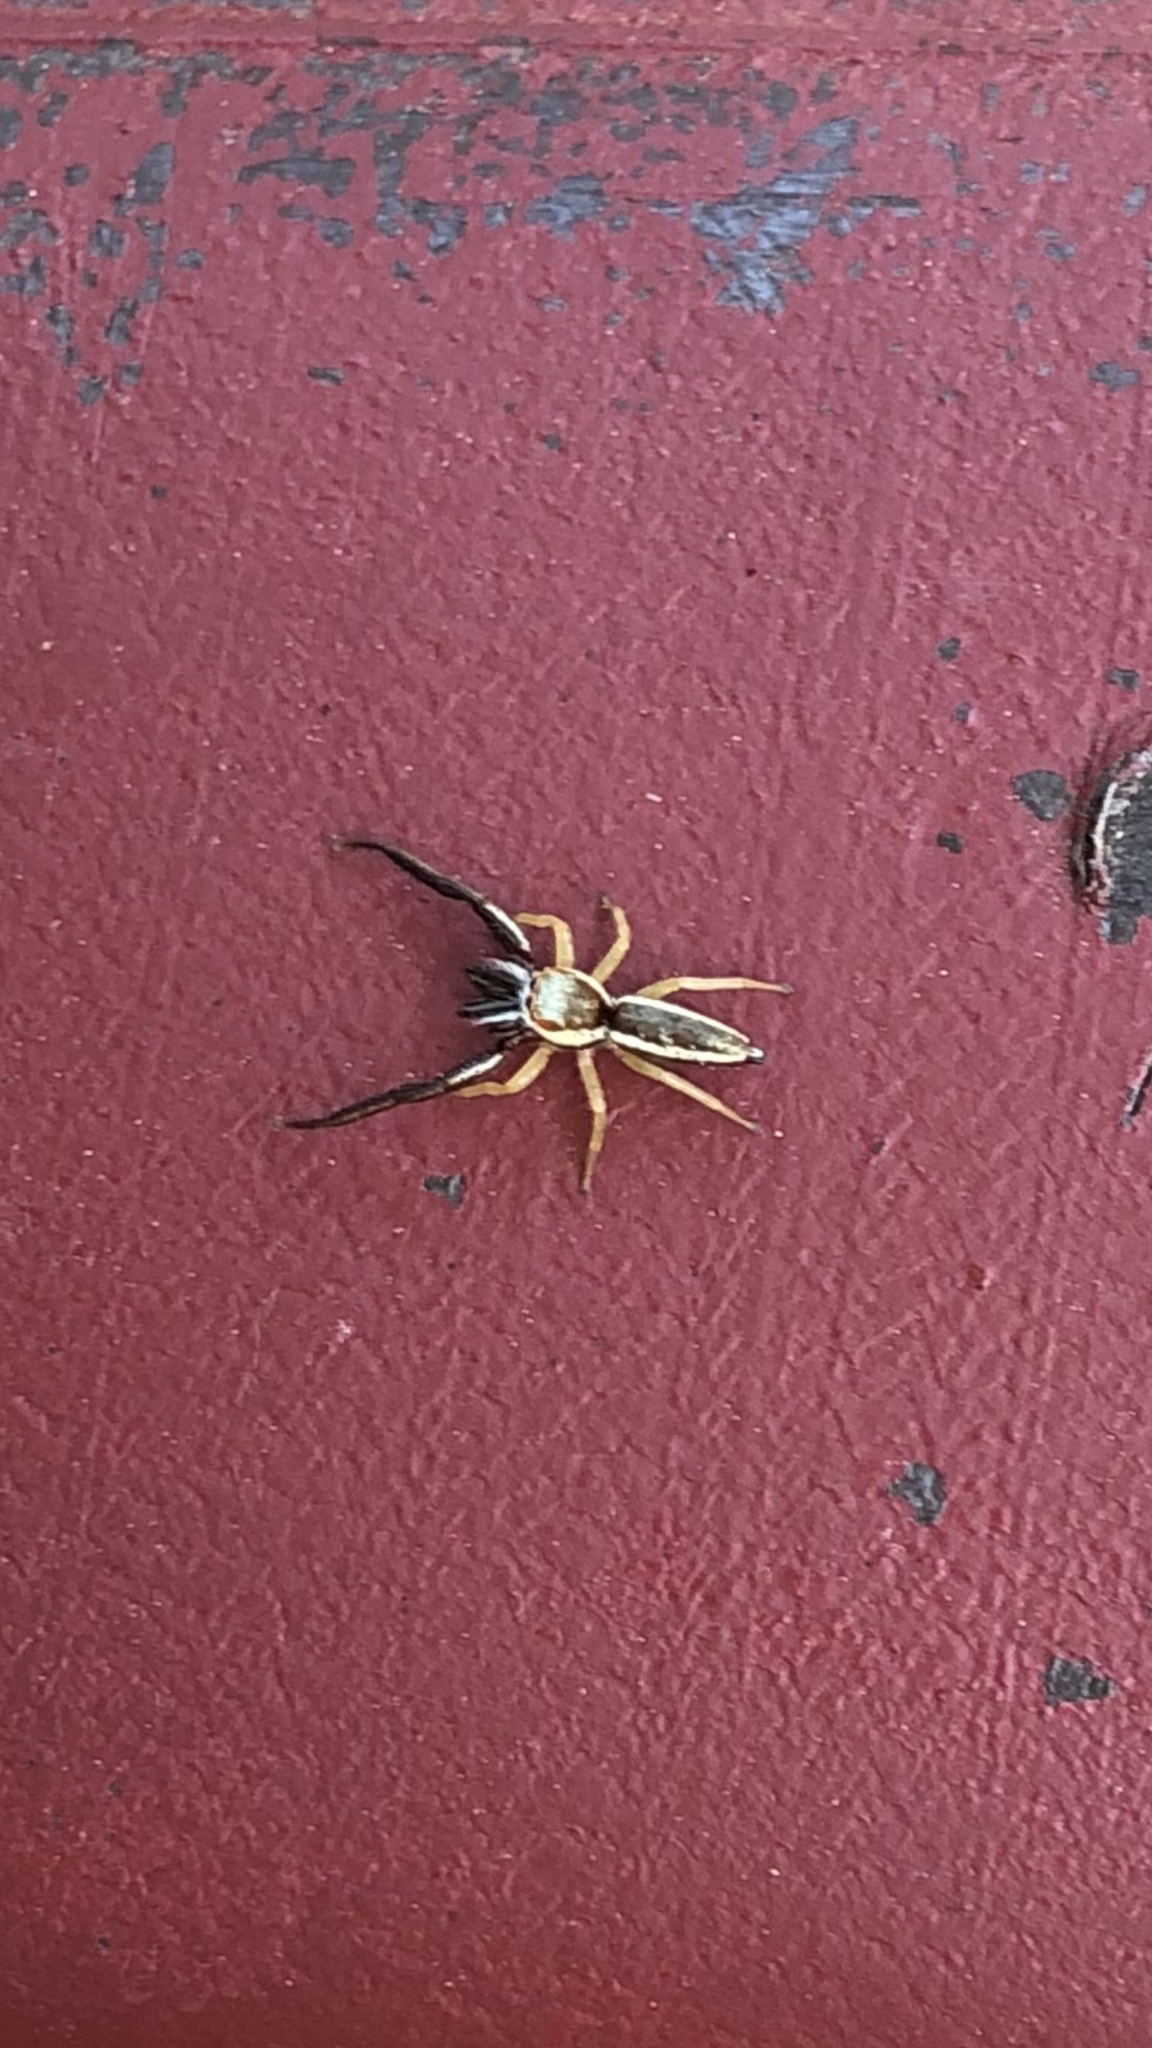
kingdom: Animalia
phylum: Arthropoda
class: Arachnida
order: Araneae
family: Salticidae
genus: Hentzia
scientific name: Hentzia palmarum
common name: Common hentz jumping spider
